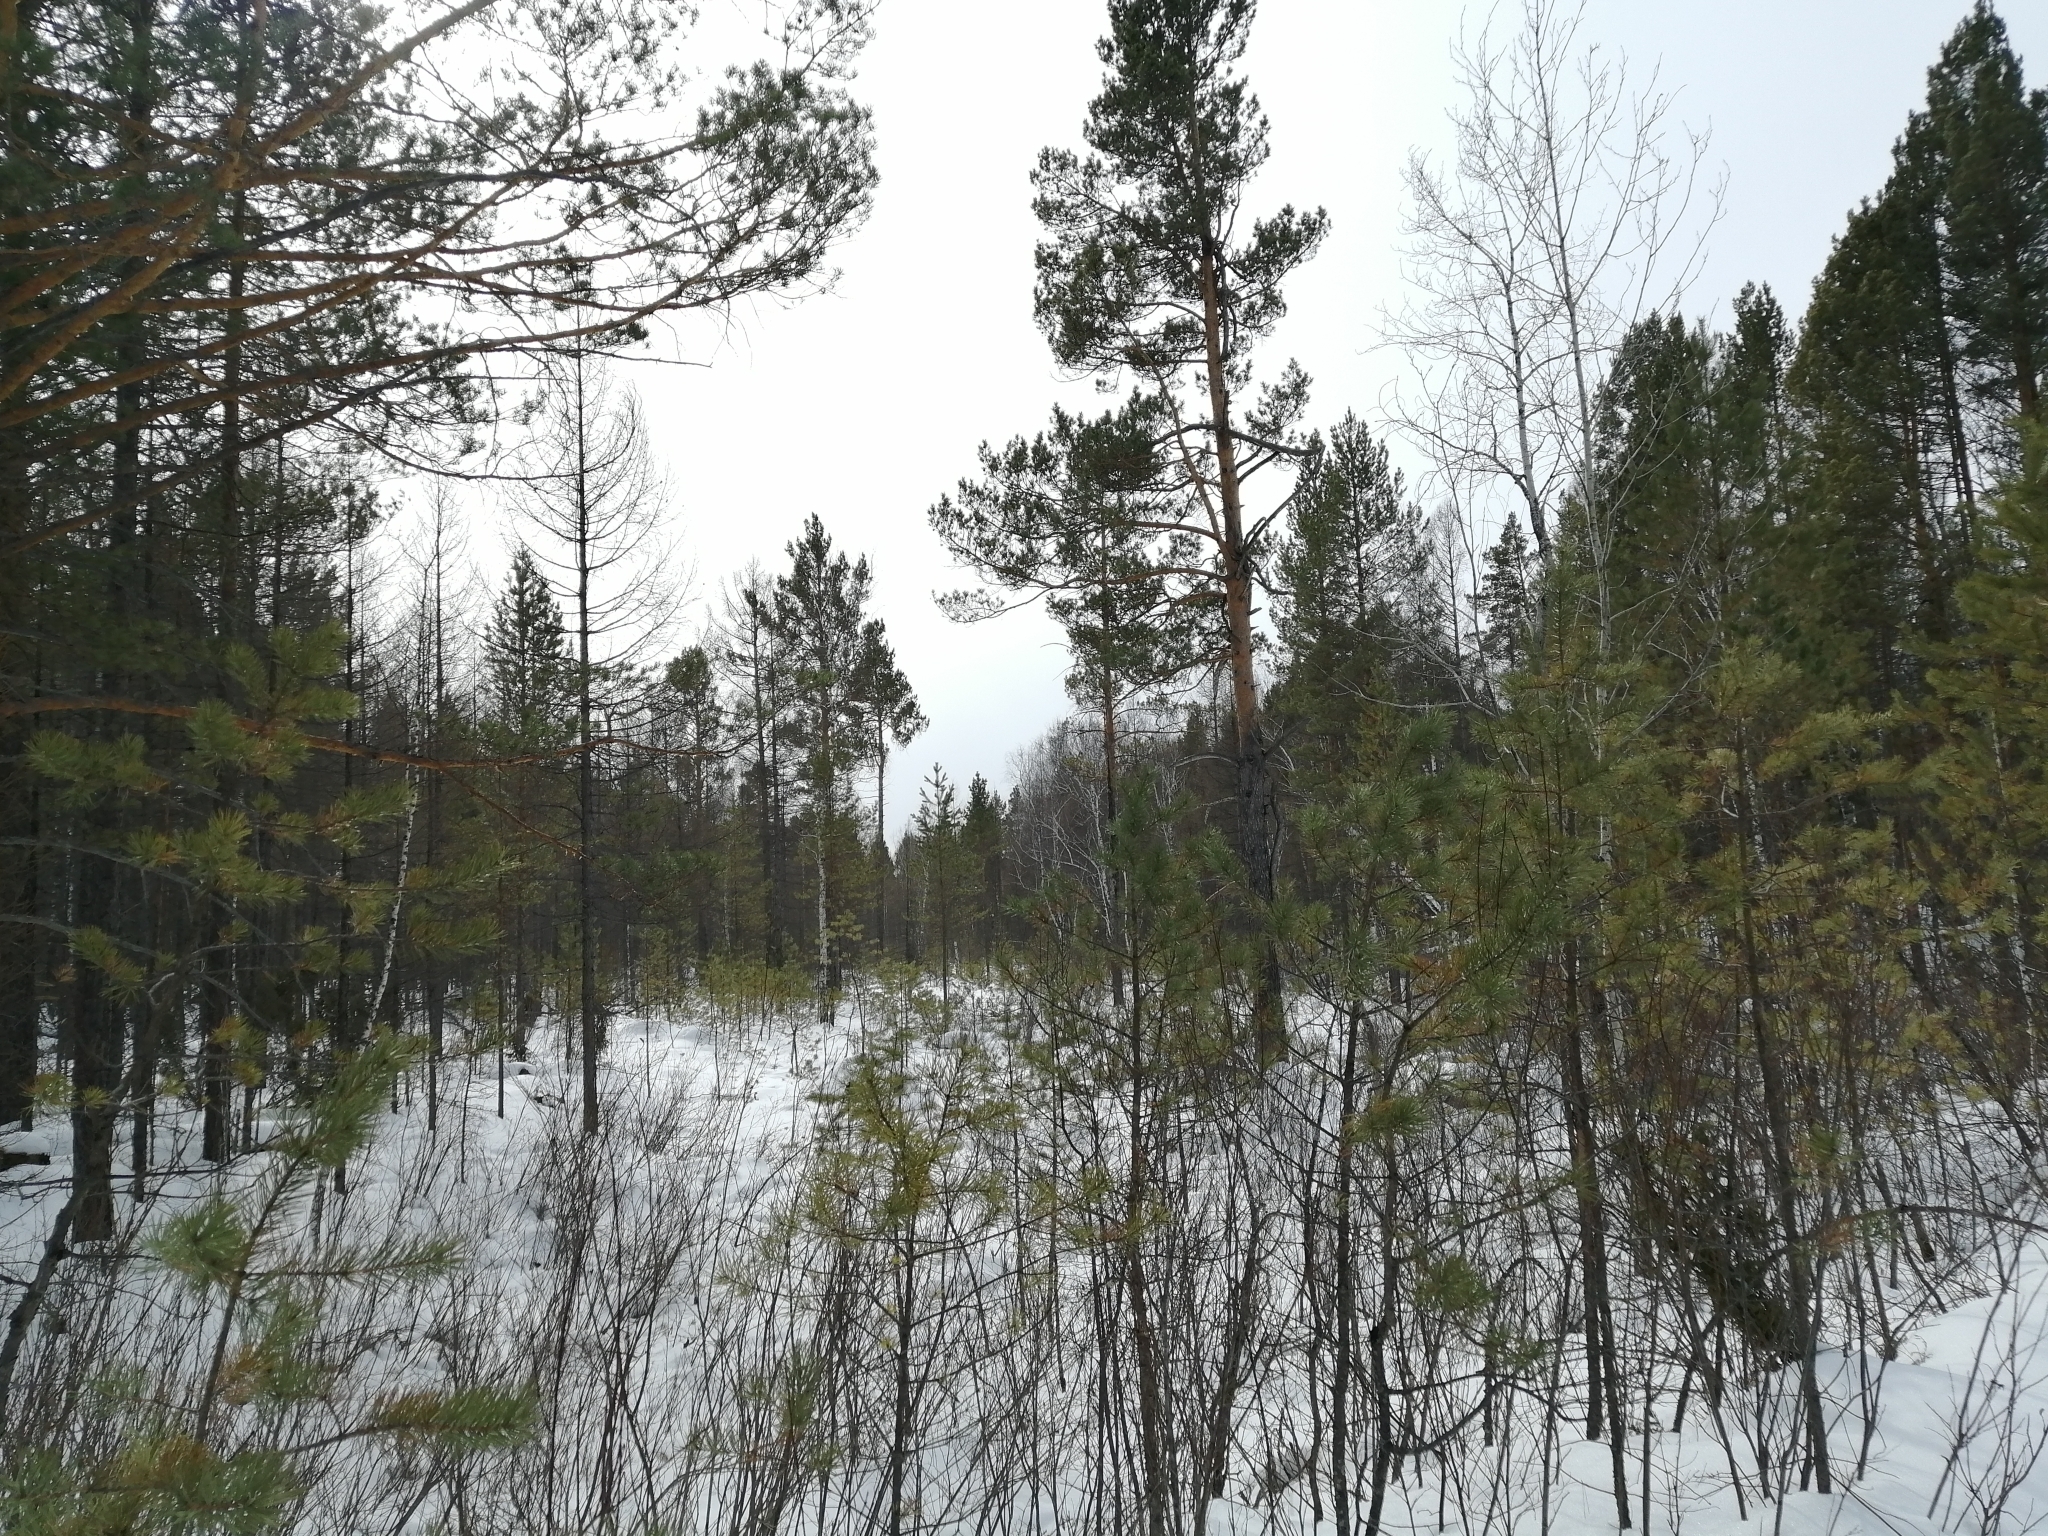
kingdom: Plantae
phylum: Tracheophyta
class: Pinopsida
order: Pinales
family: Pinaceae
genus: Pinus
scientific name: Pinus sylvestris
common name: Scots pine
